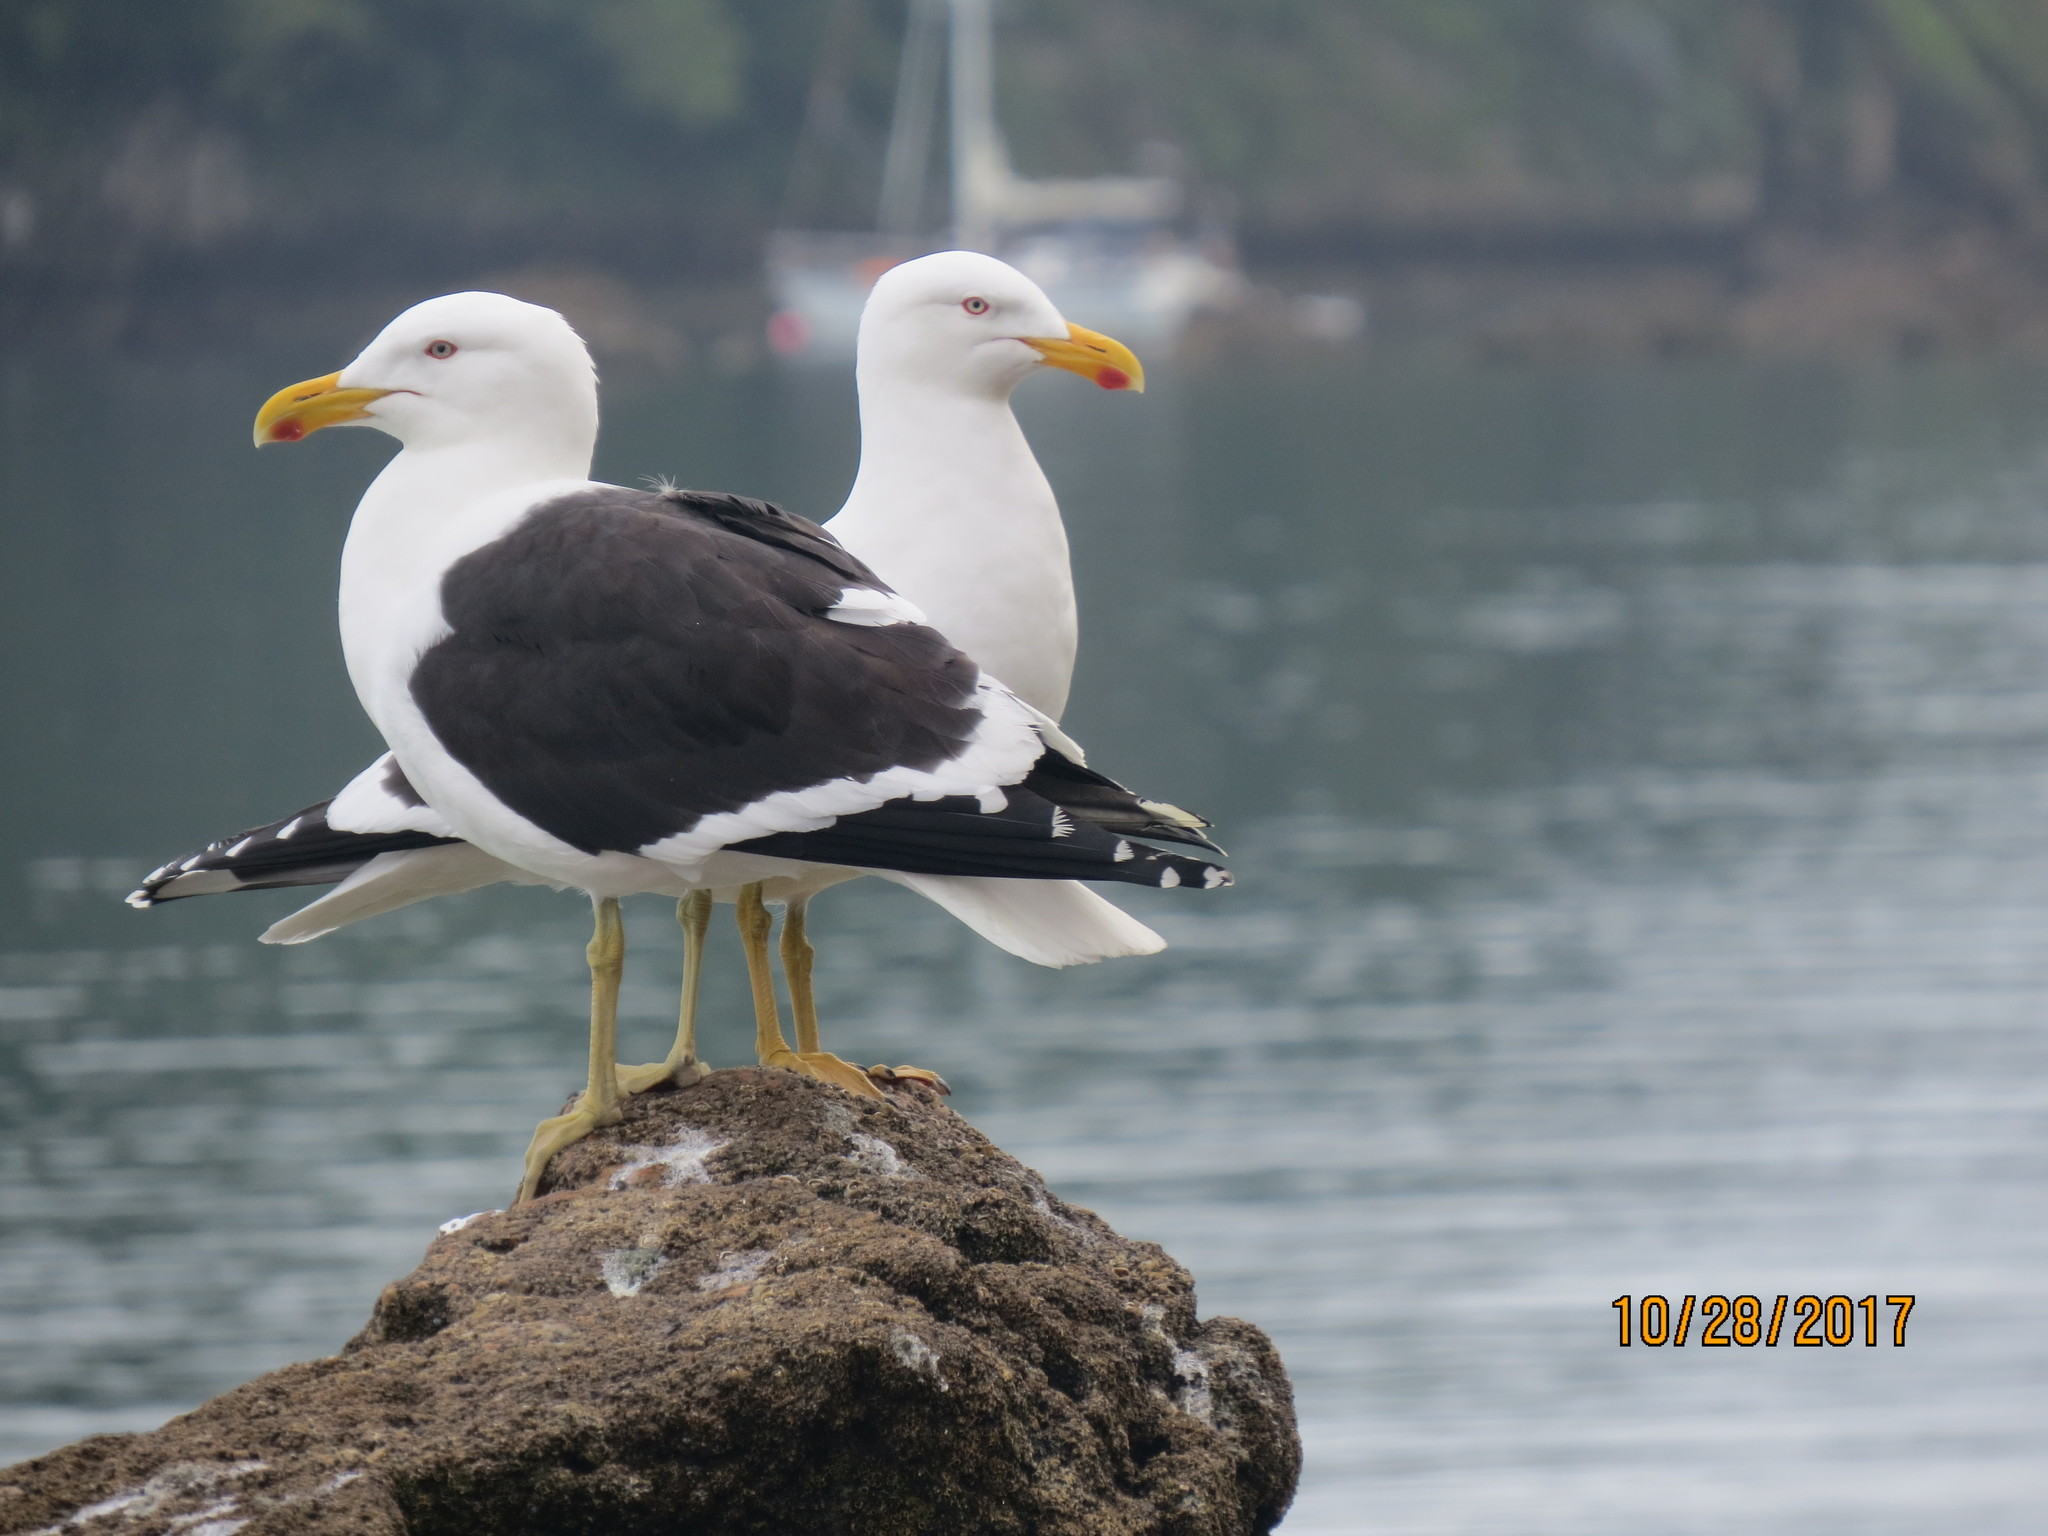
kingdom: Animalia
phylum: Chordata
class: Aves
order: Charadriiformes
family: Laridae
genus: Larus
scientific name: Larus dominicanus
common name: Kelp gull
